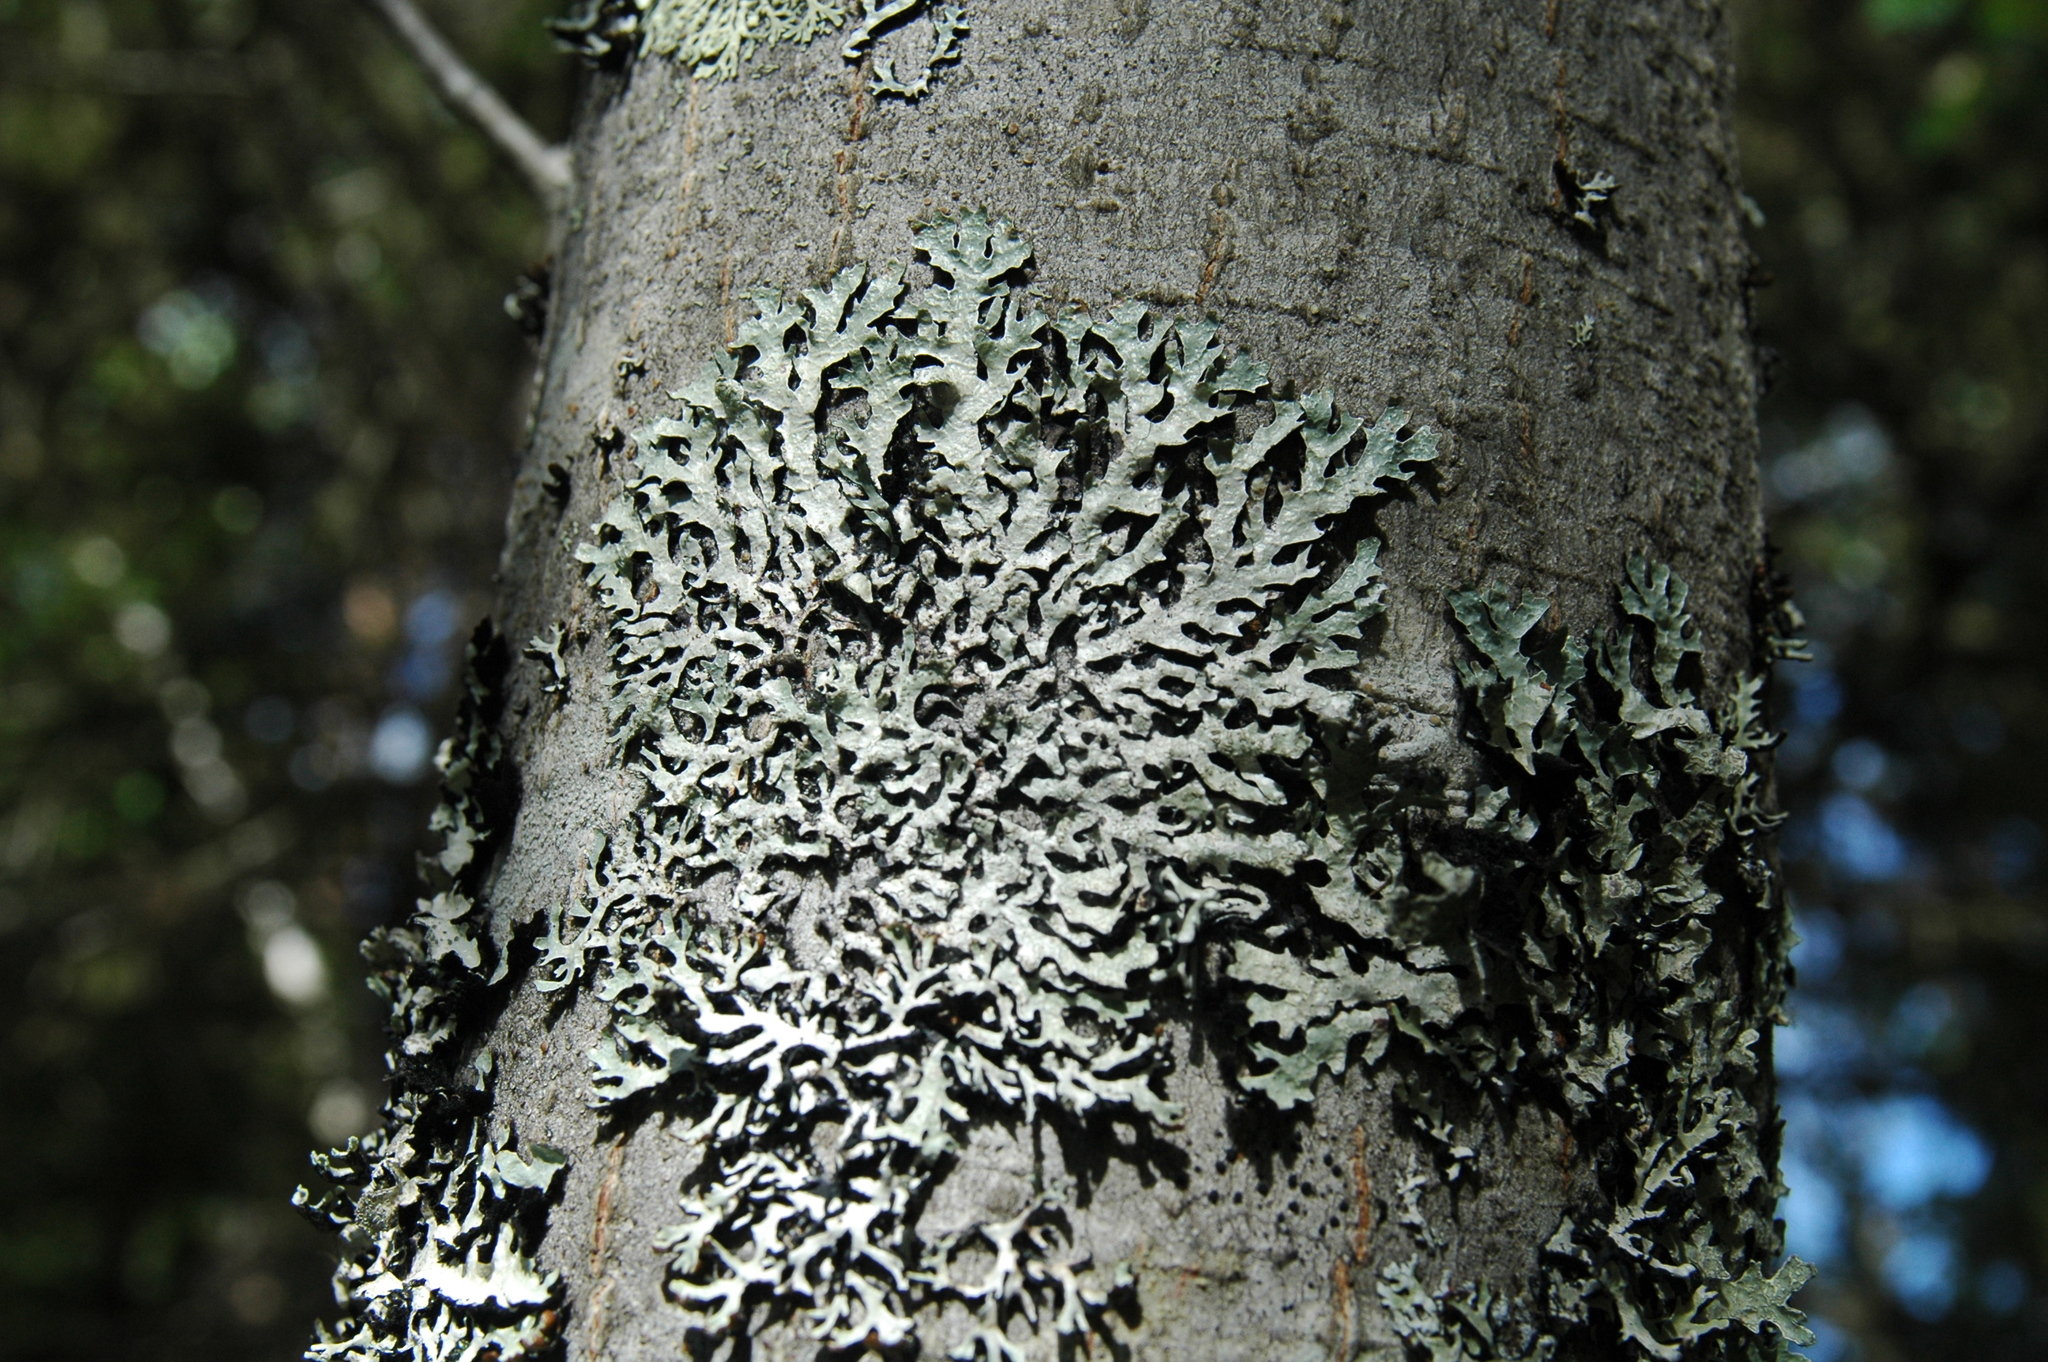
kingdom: Fungi
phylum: Ascomycota
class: Lecanoromycetes
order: Lecanorales
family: Parmeliaceae
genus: Parmelia
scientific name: Parmelia sulcata
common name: Netted shield lichen
